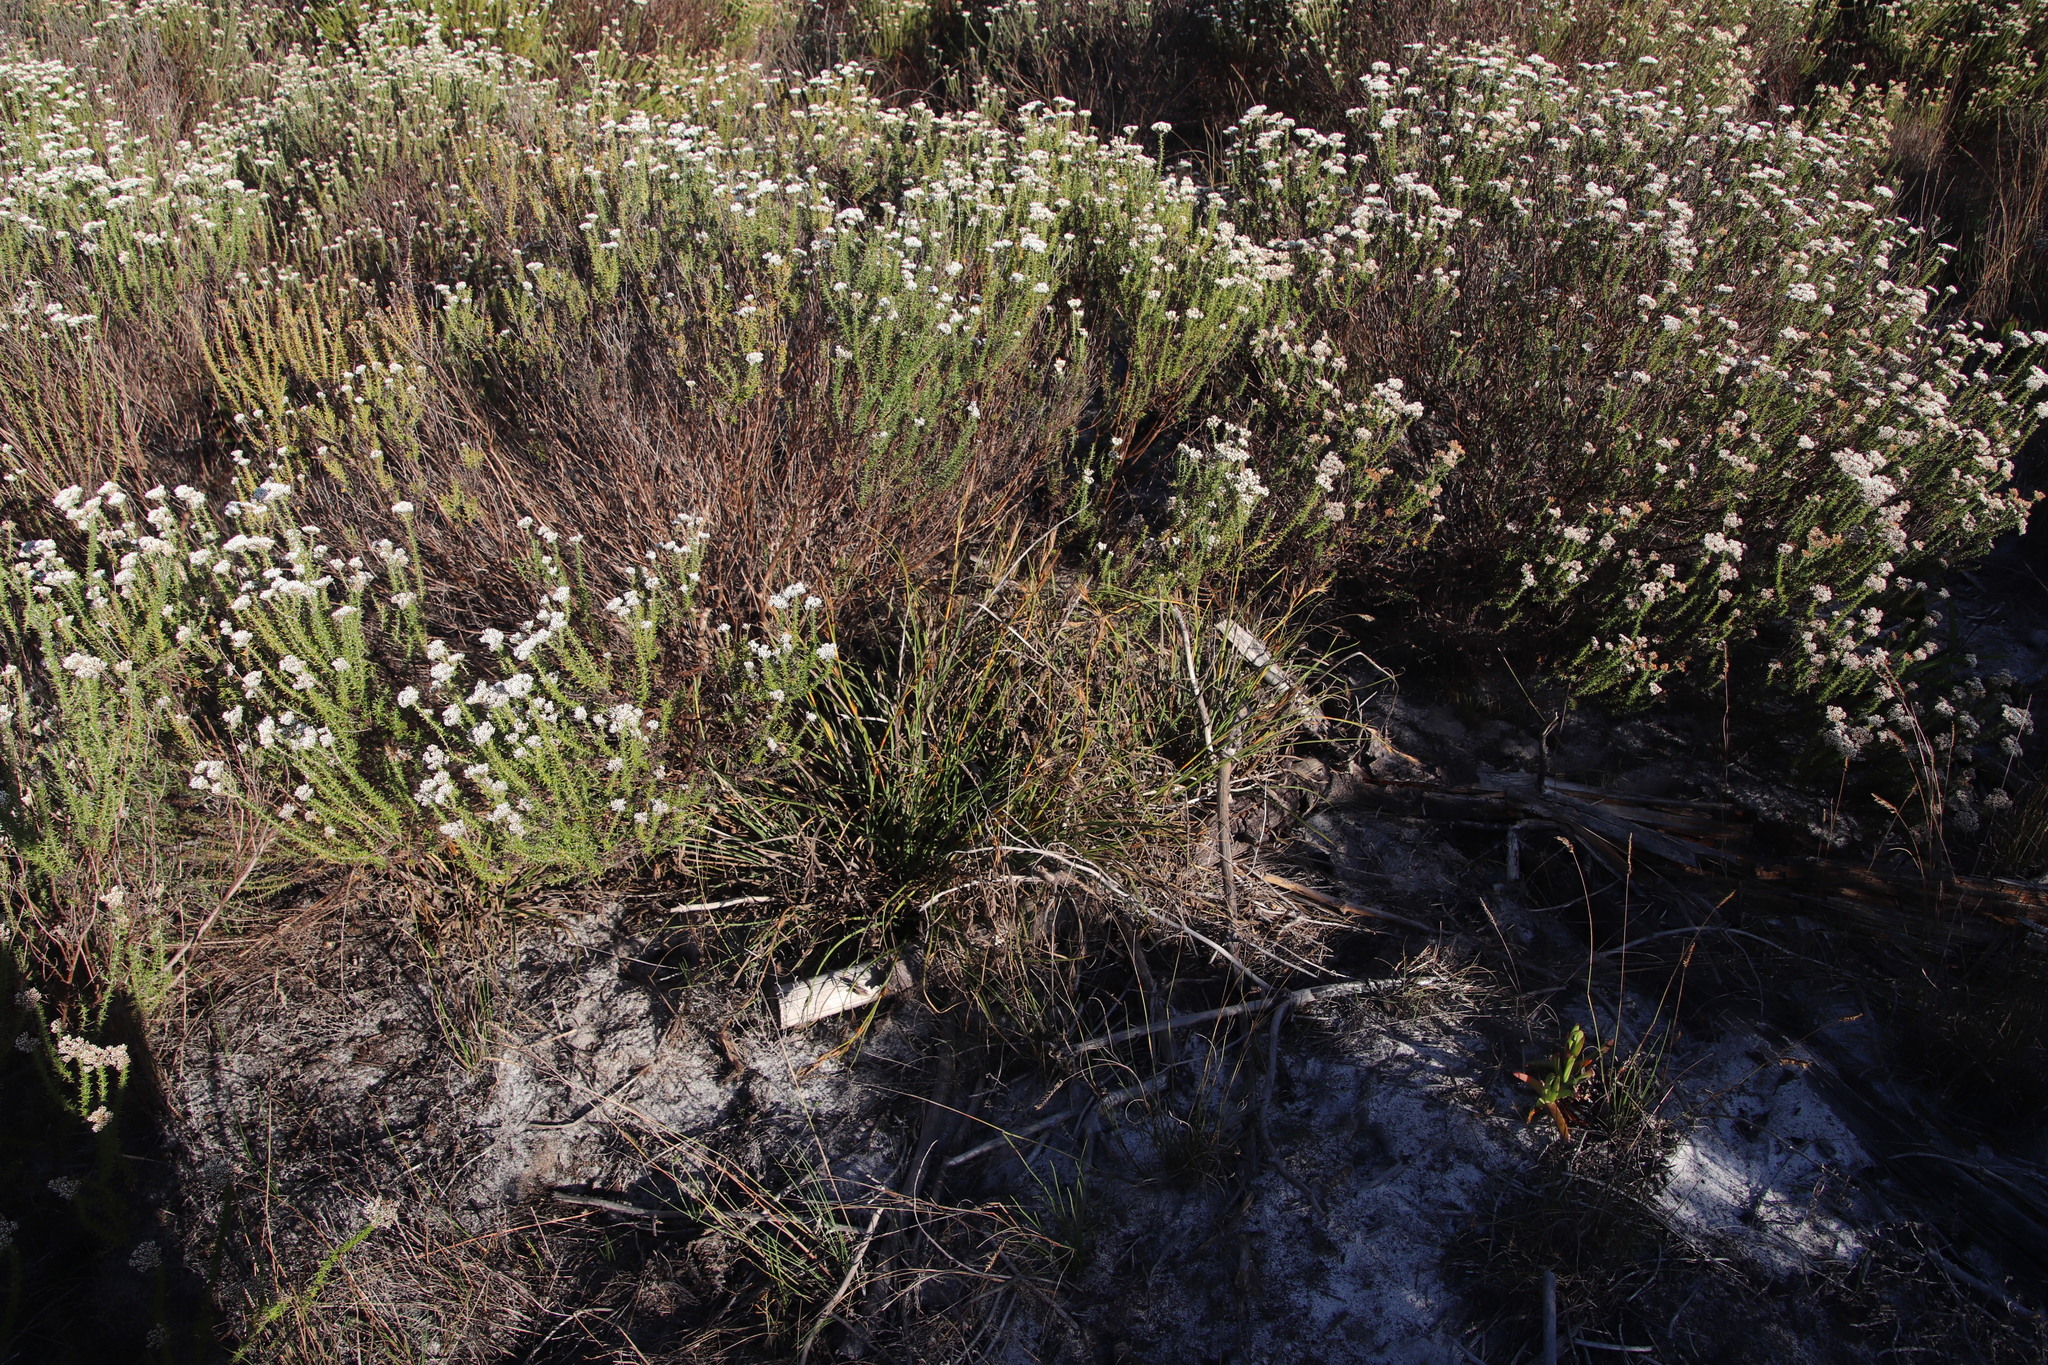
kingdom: Plantae
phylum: Tracheophyta
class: Liliopsida
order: Poales
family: Cyperaceae
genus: Tetraria
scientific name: Tetraria eximia
